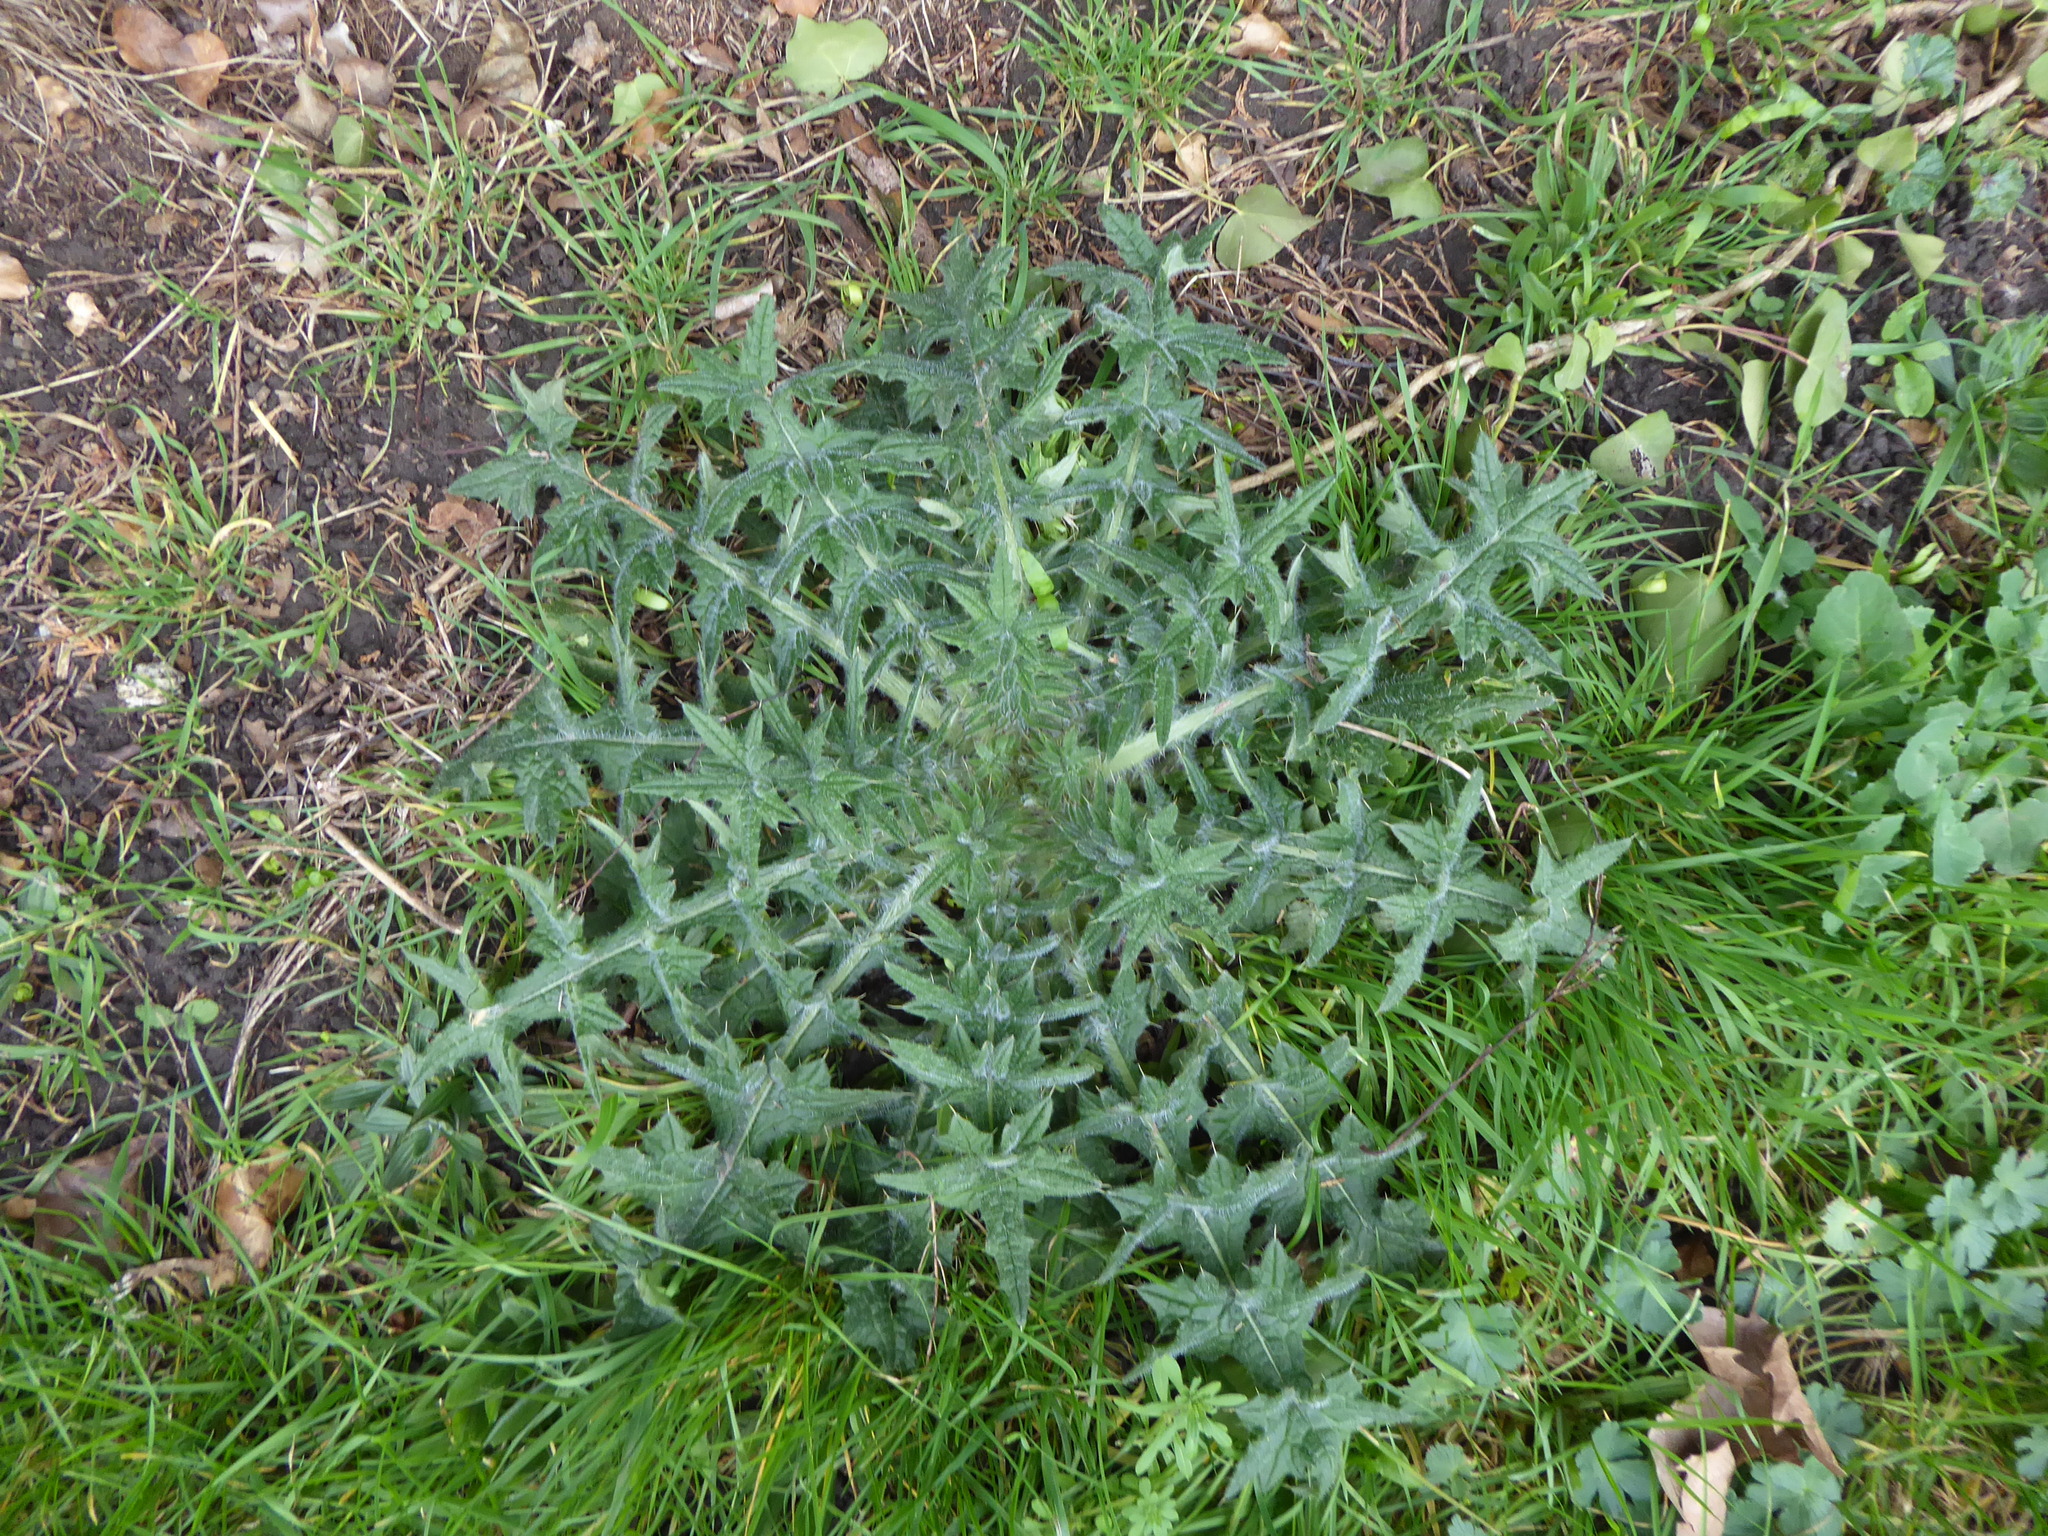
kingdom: Plantae
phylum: Tracheophyta
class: Magnoliopsida
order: Asterales
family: Asteraceae
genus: Cirsium
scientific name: Cirsium vulgare
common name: Bull thistle
